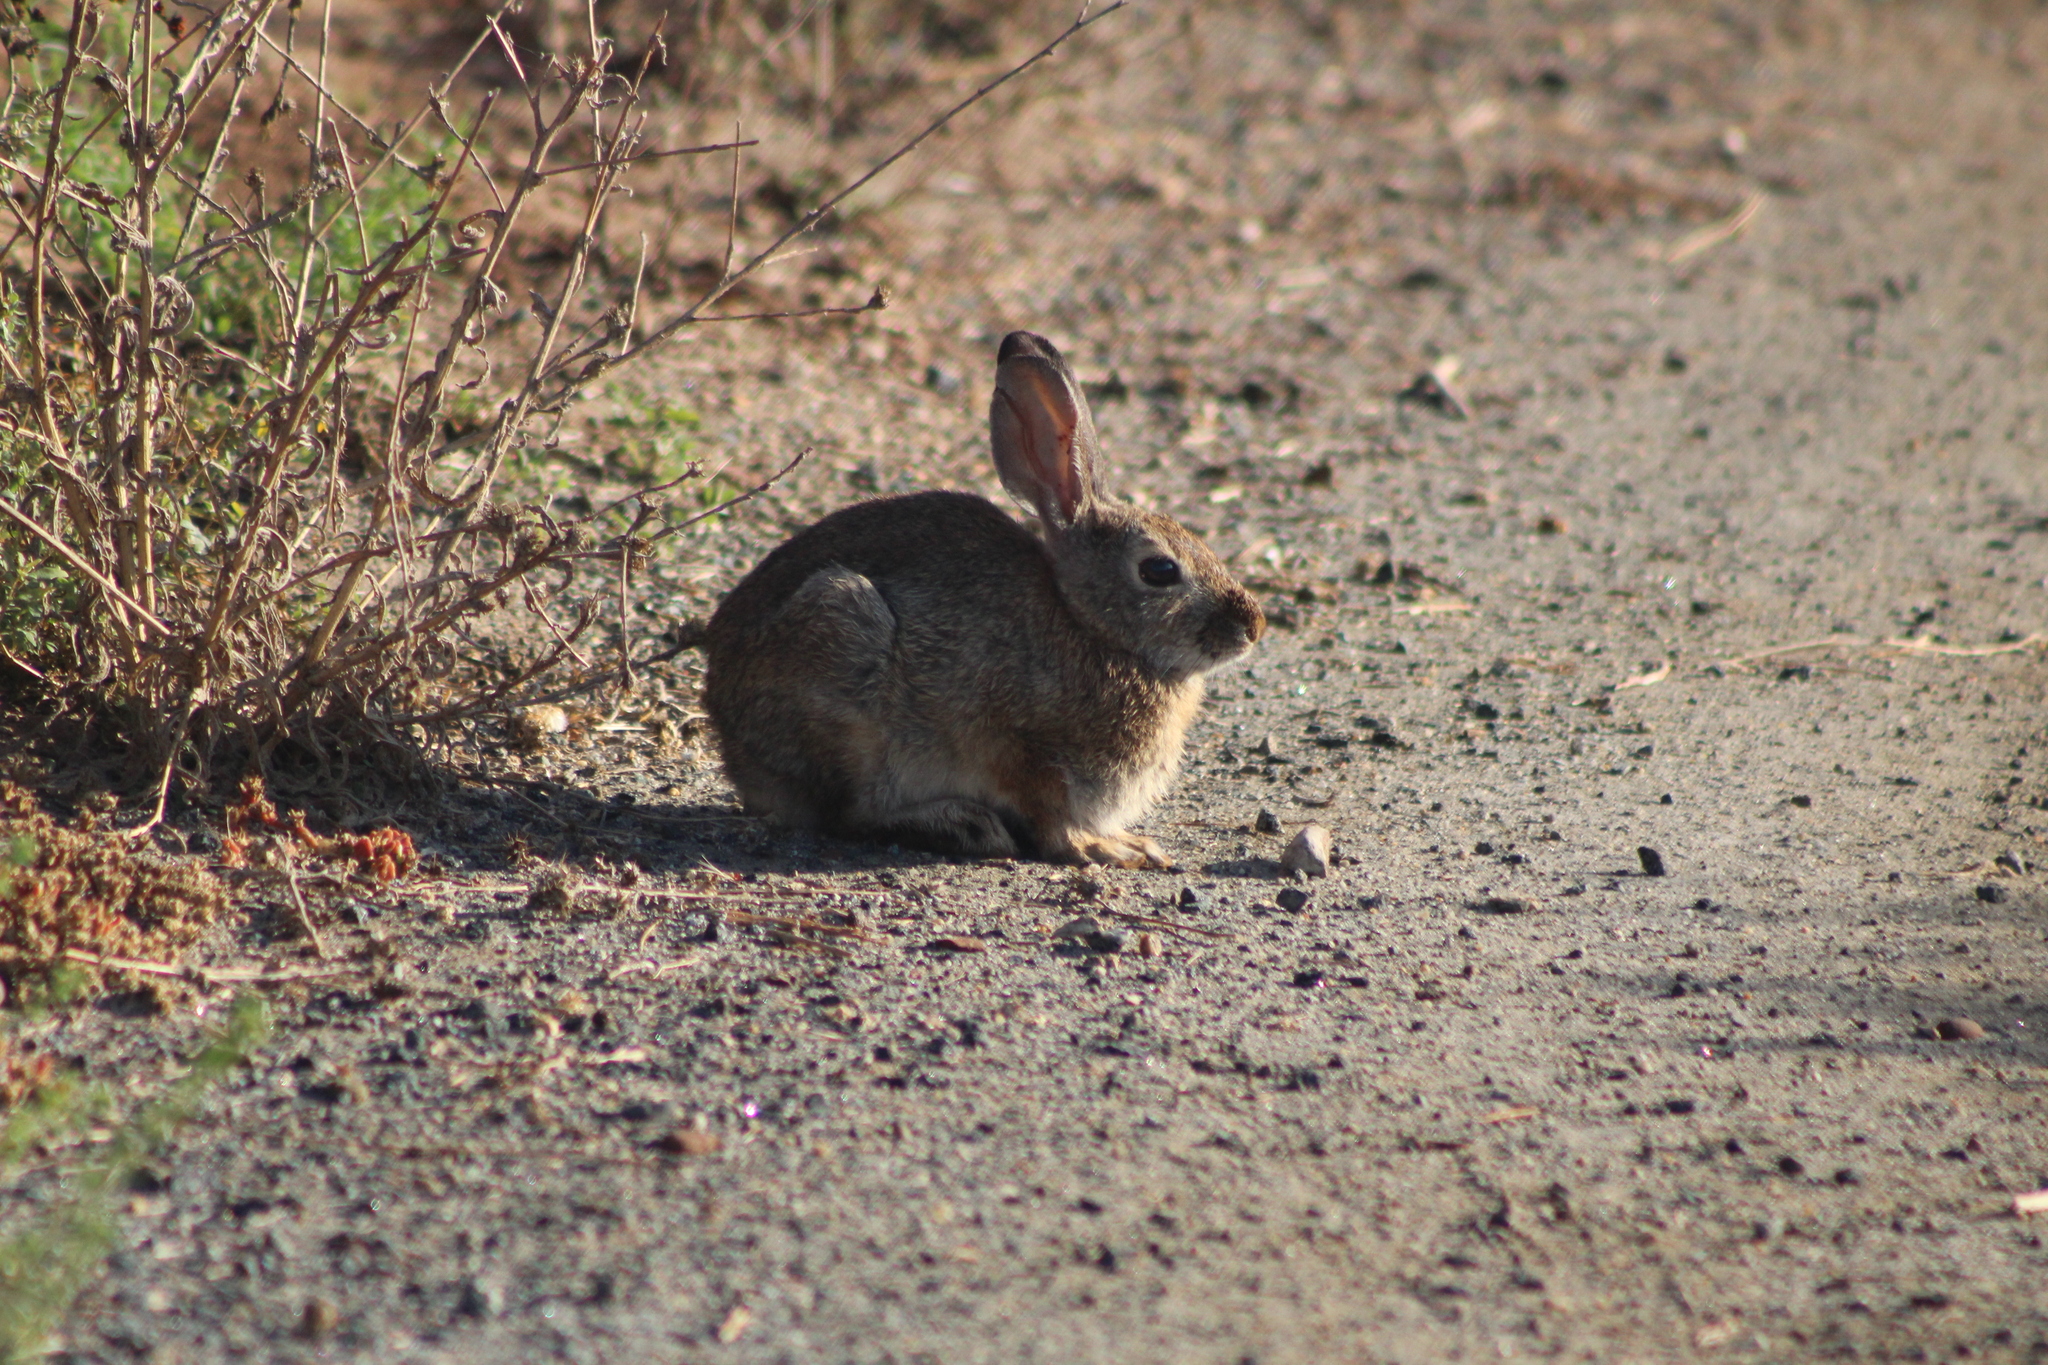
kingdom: Animalia
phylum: Chordata
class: Mammalia
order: Lagomorpha
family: Leporidae
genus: Sylvilagus
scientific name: Sylvilagus bachmani
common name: Brush rabbit
